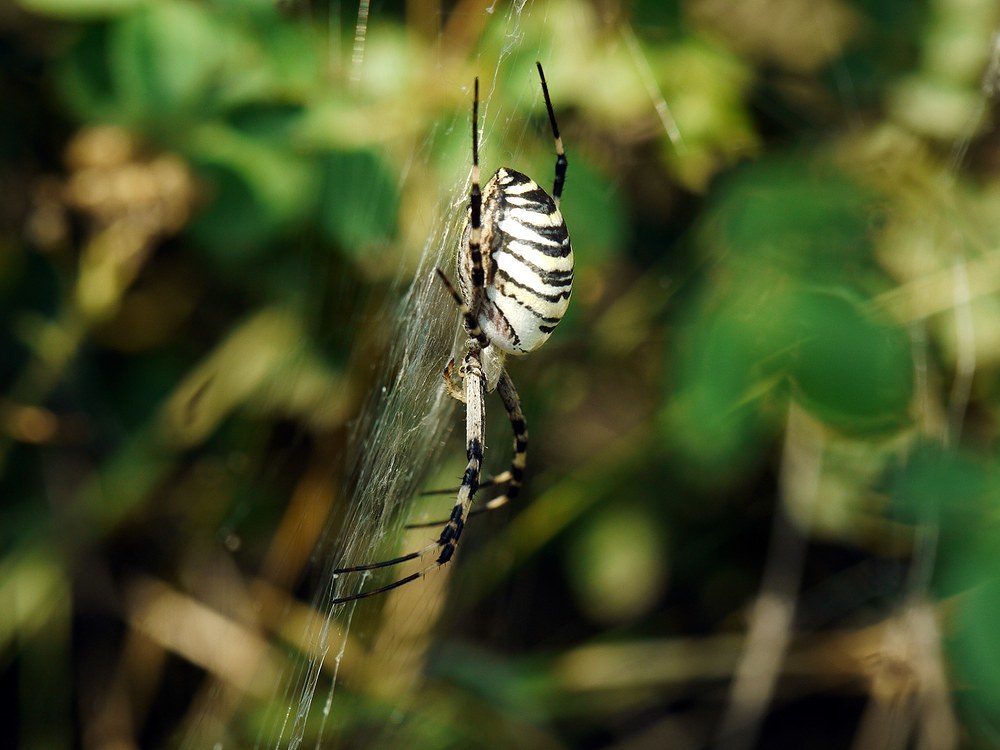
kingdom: Animalia
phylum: Arthropoda
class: Arachnida
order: Araneae
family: Araneidae
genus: Argiope
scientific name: Argiope bruennichi
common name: Wasp spider
